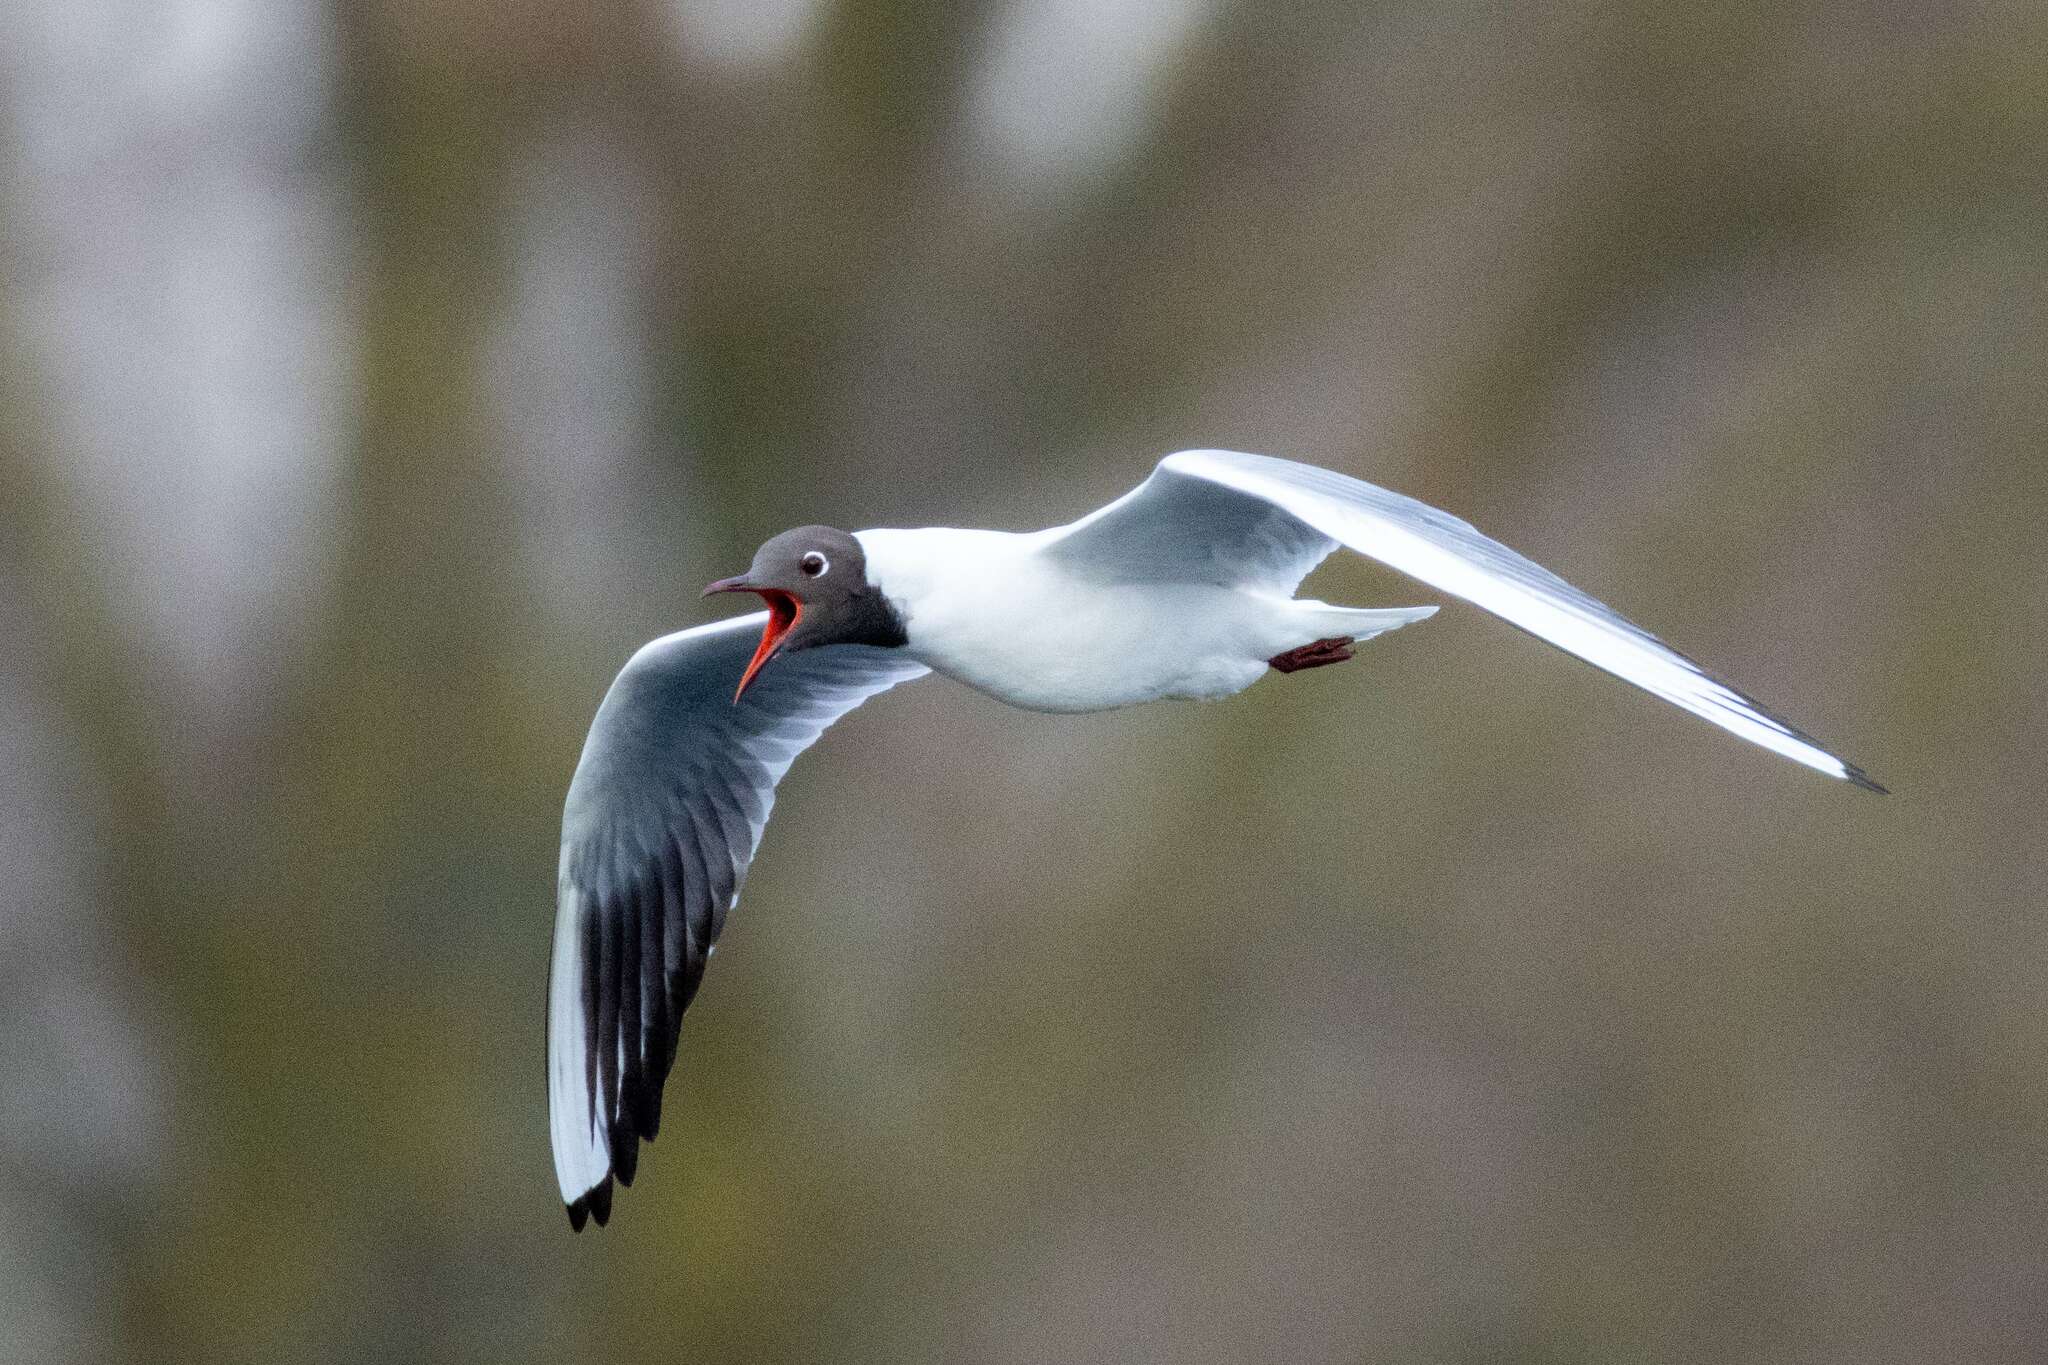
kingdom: Animalia
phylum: Chordata
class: Aves
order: Charadriiformes
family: Laridae
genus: Chroicocephalus
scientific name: Chroicocephalus ridibundus
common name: Black-headed gull
